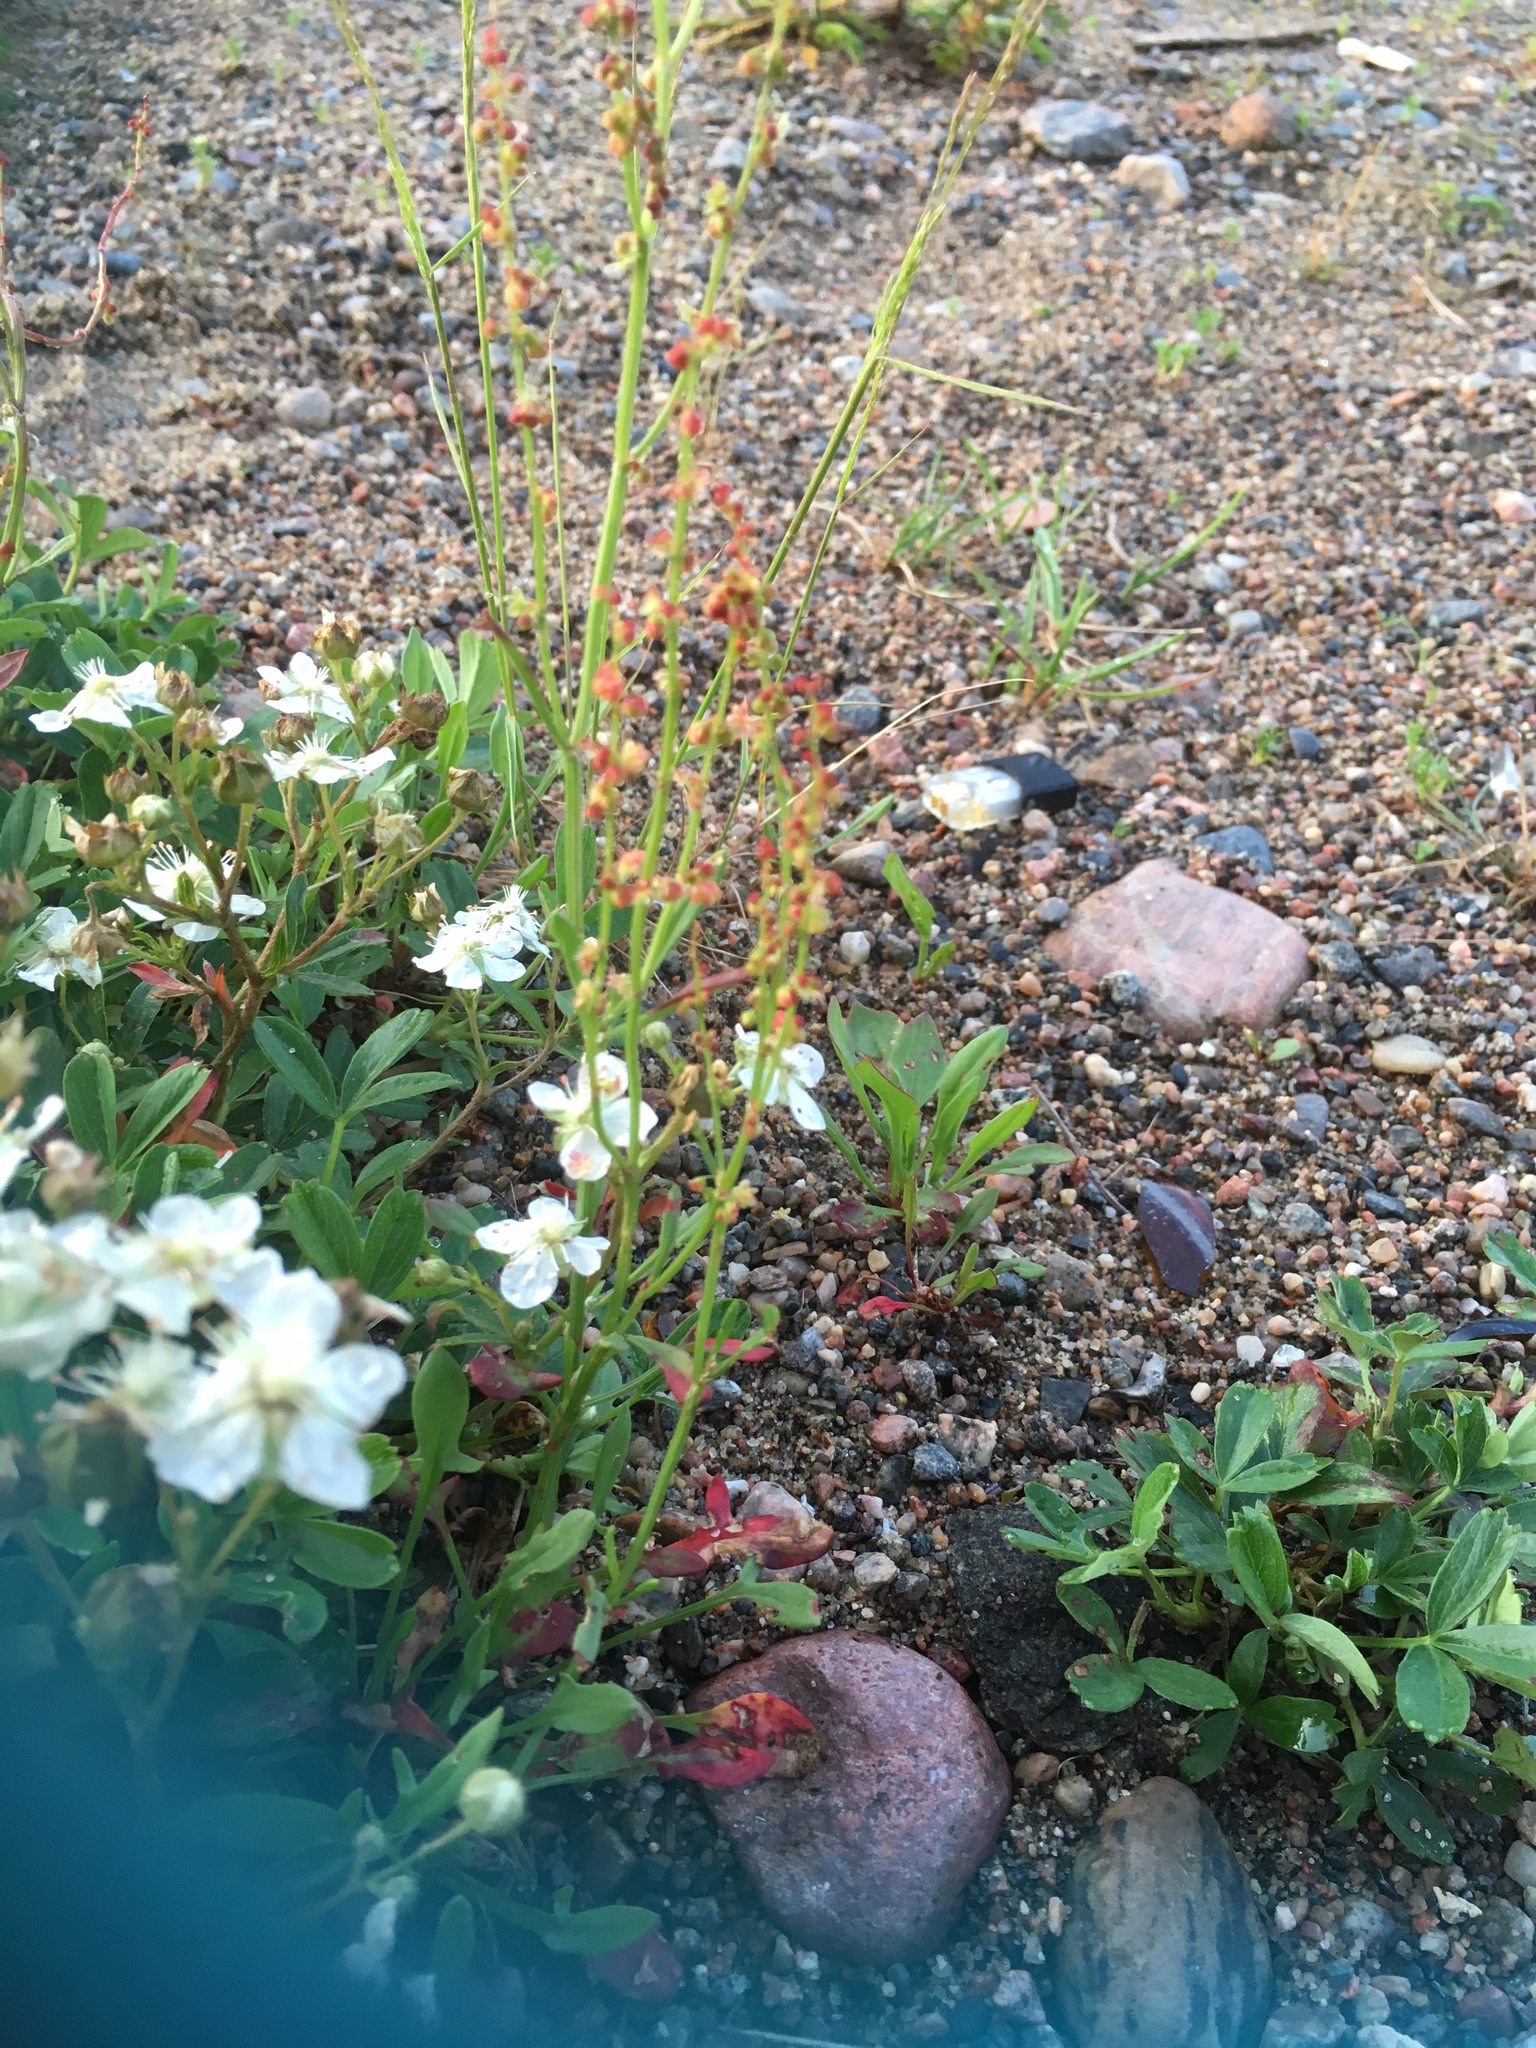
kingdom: Plantae
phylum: Tracheophyta
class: Magnoliopsida
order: Caryophyllales
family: Polygonaceae
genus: Rumex
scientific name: Rumex acetosella
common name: Common sheep sorrel
